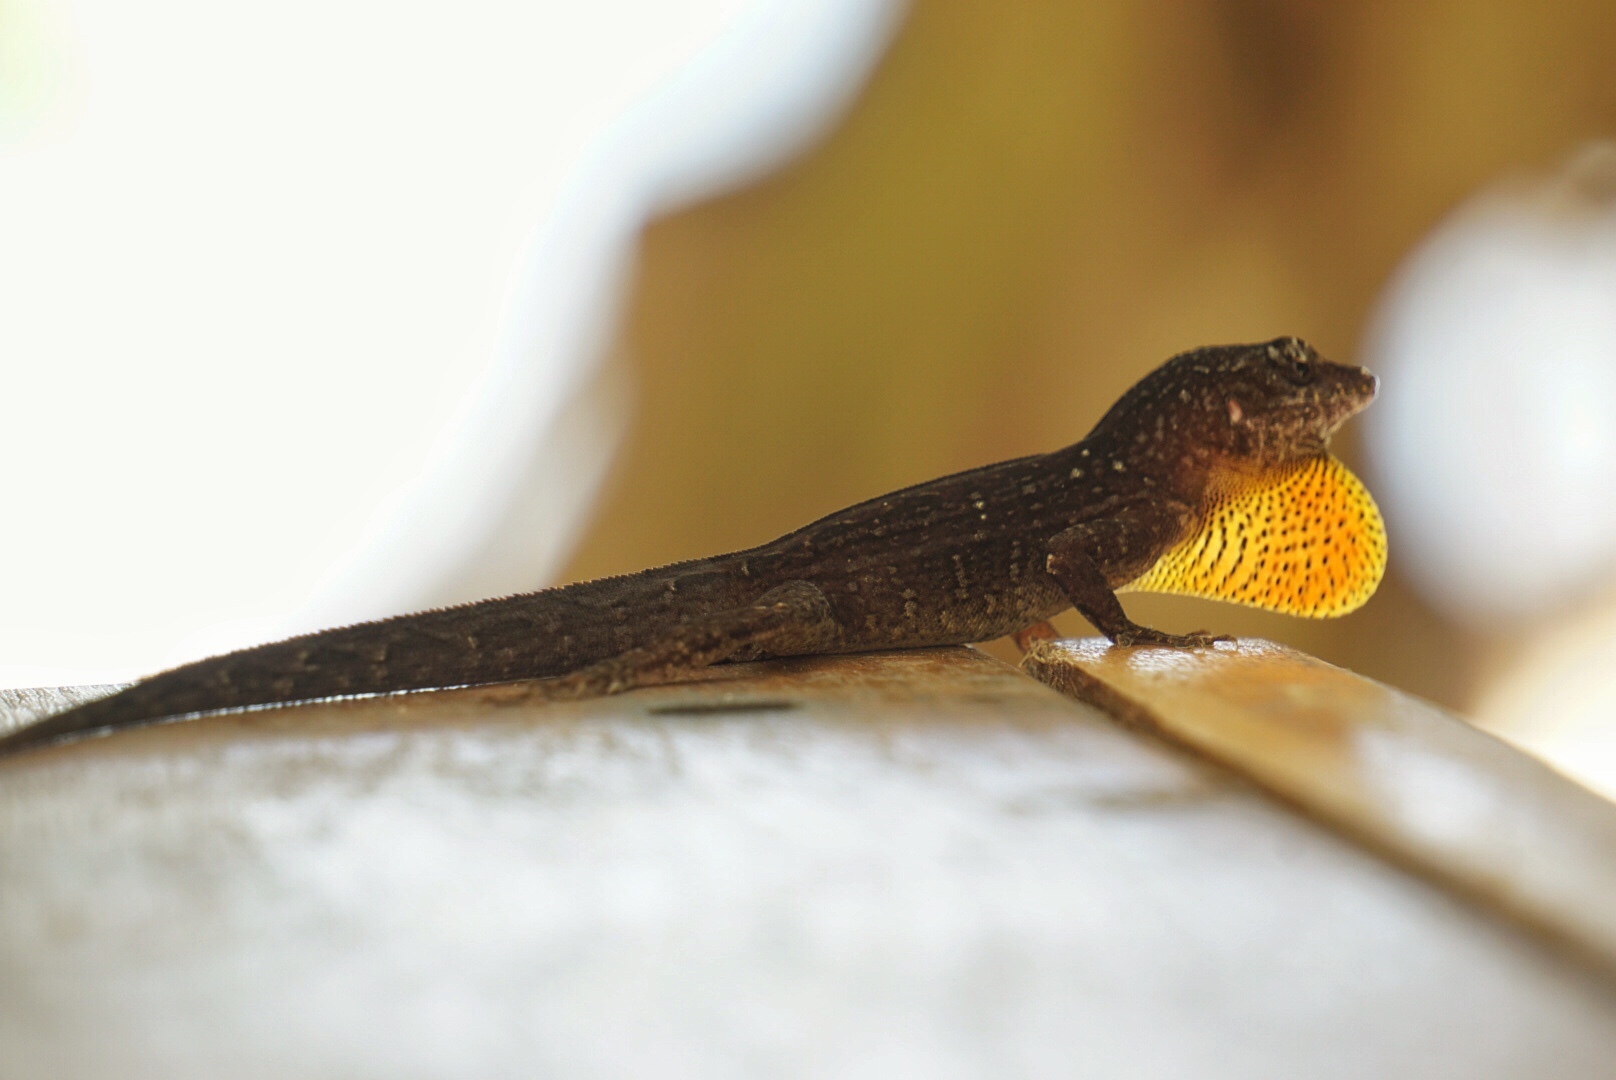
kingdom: Animalia
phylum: Chordata
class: Squamata
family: Dactyloidae
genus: Anolis
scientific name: Anolis sagrei
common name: Brown anole
